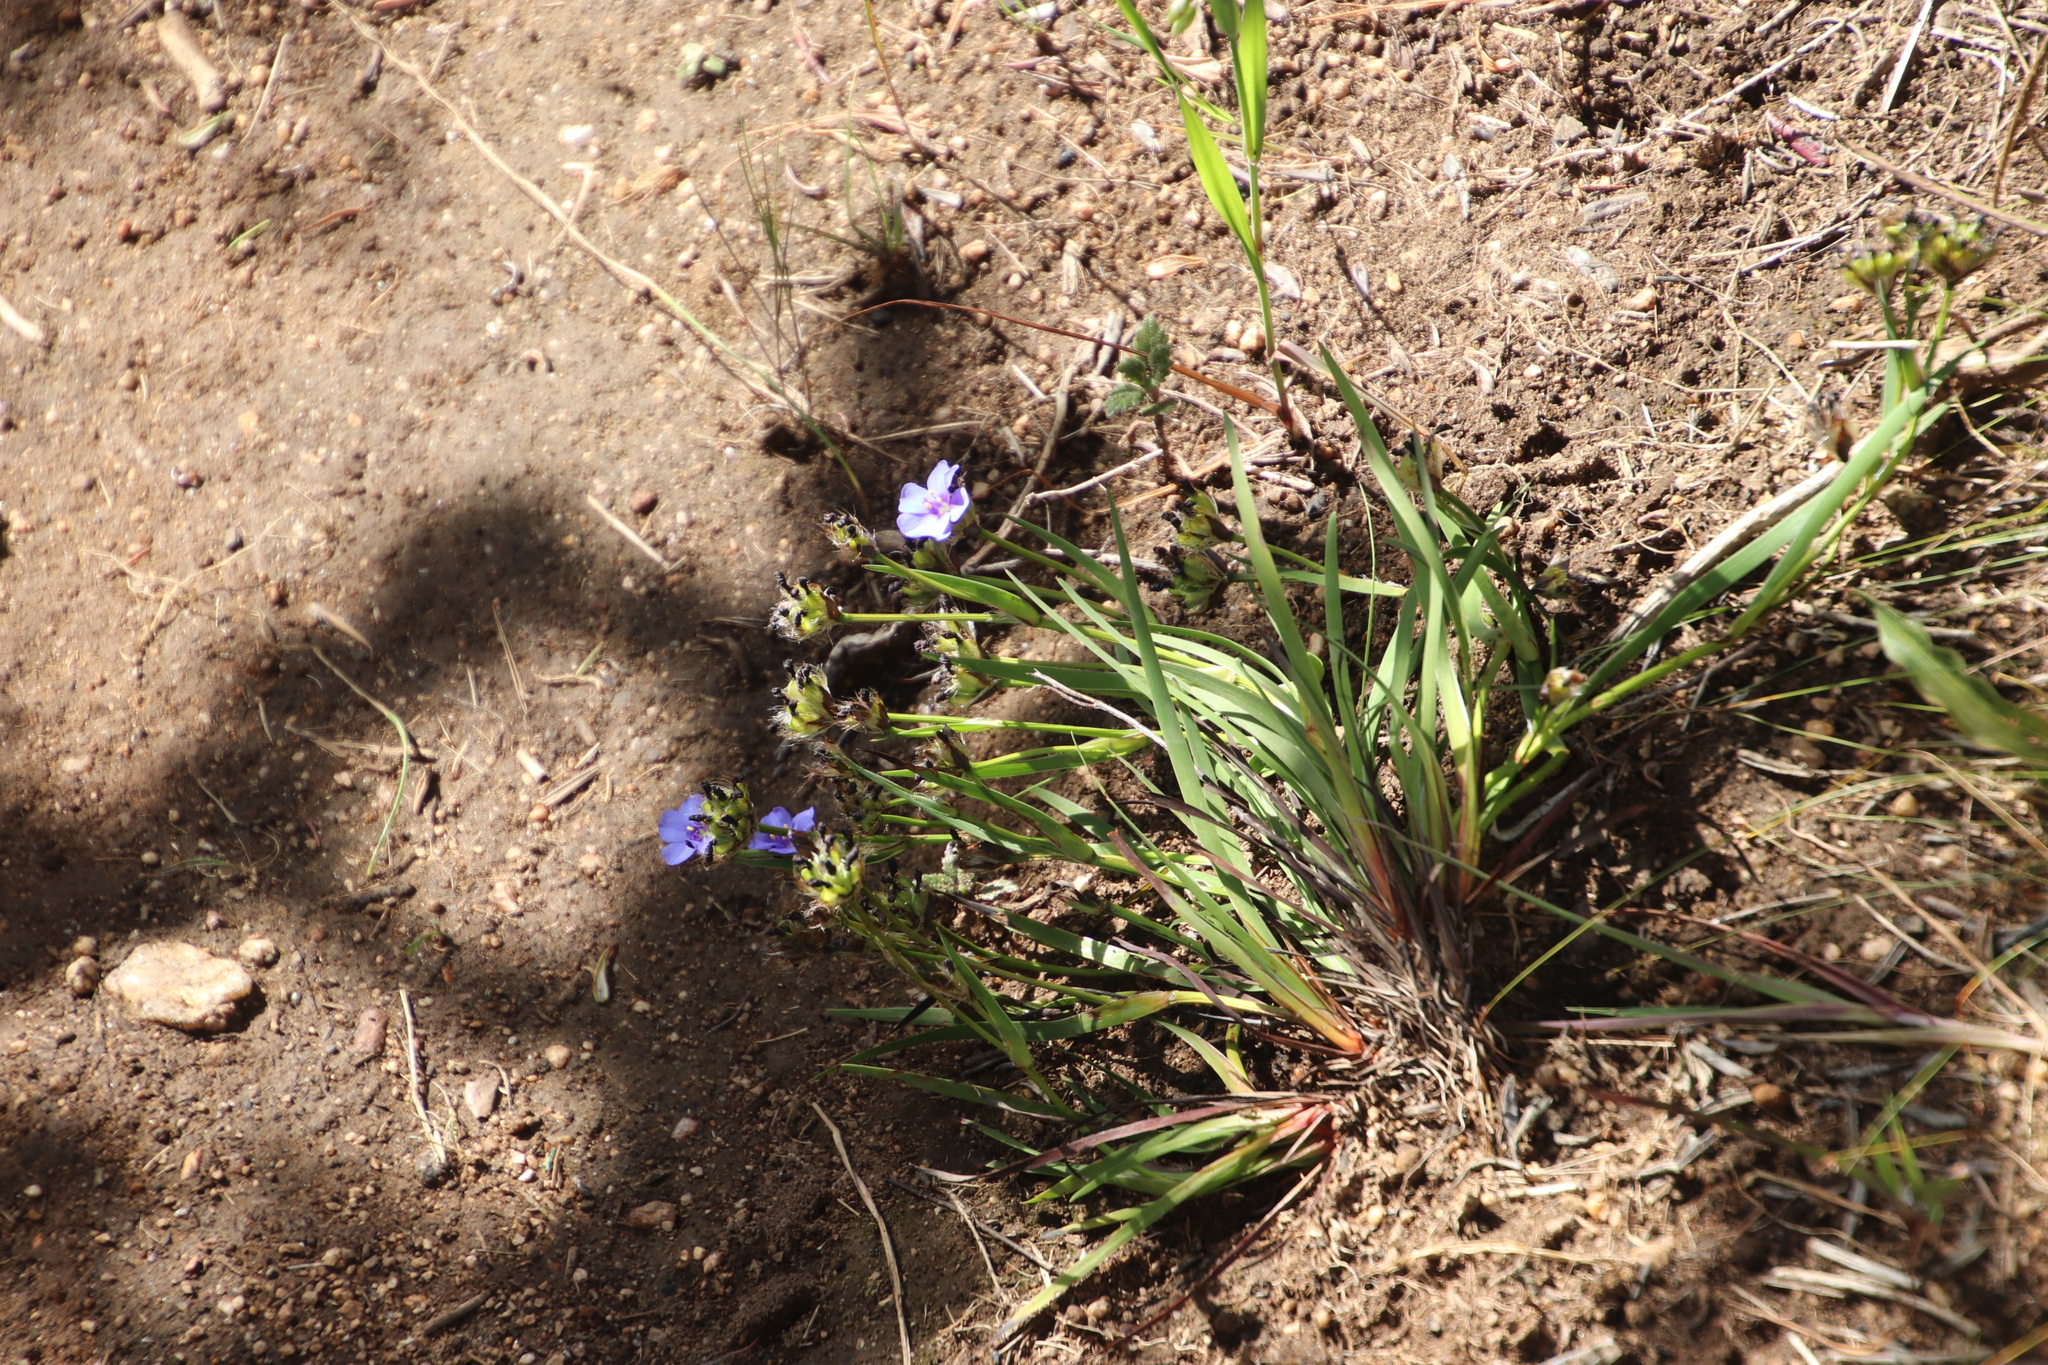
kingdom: Plantae
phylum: Tracheophyta
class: Liliopsida
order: Asparagales
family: Iridaceae
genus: Aristea
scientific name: Aristea africana
